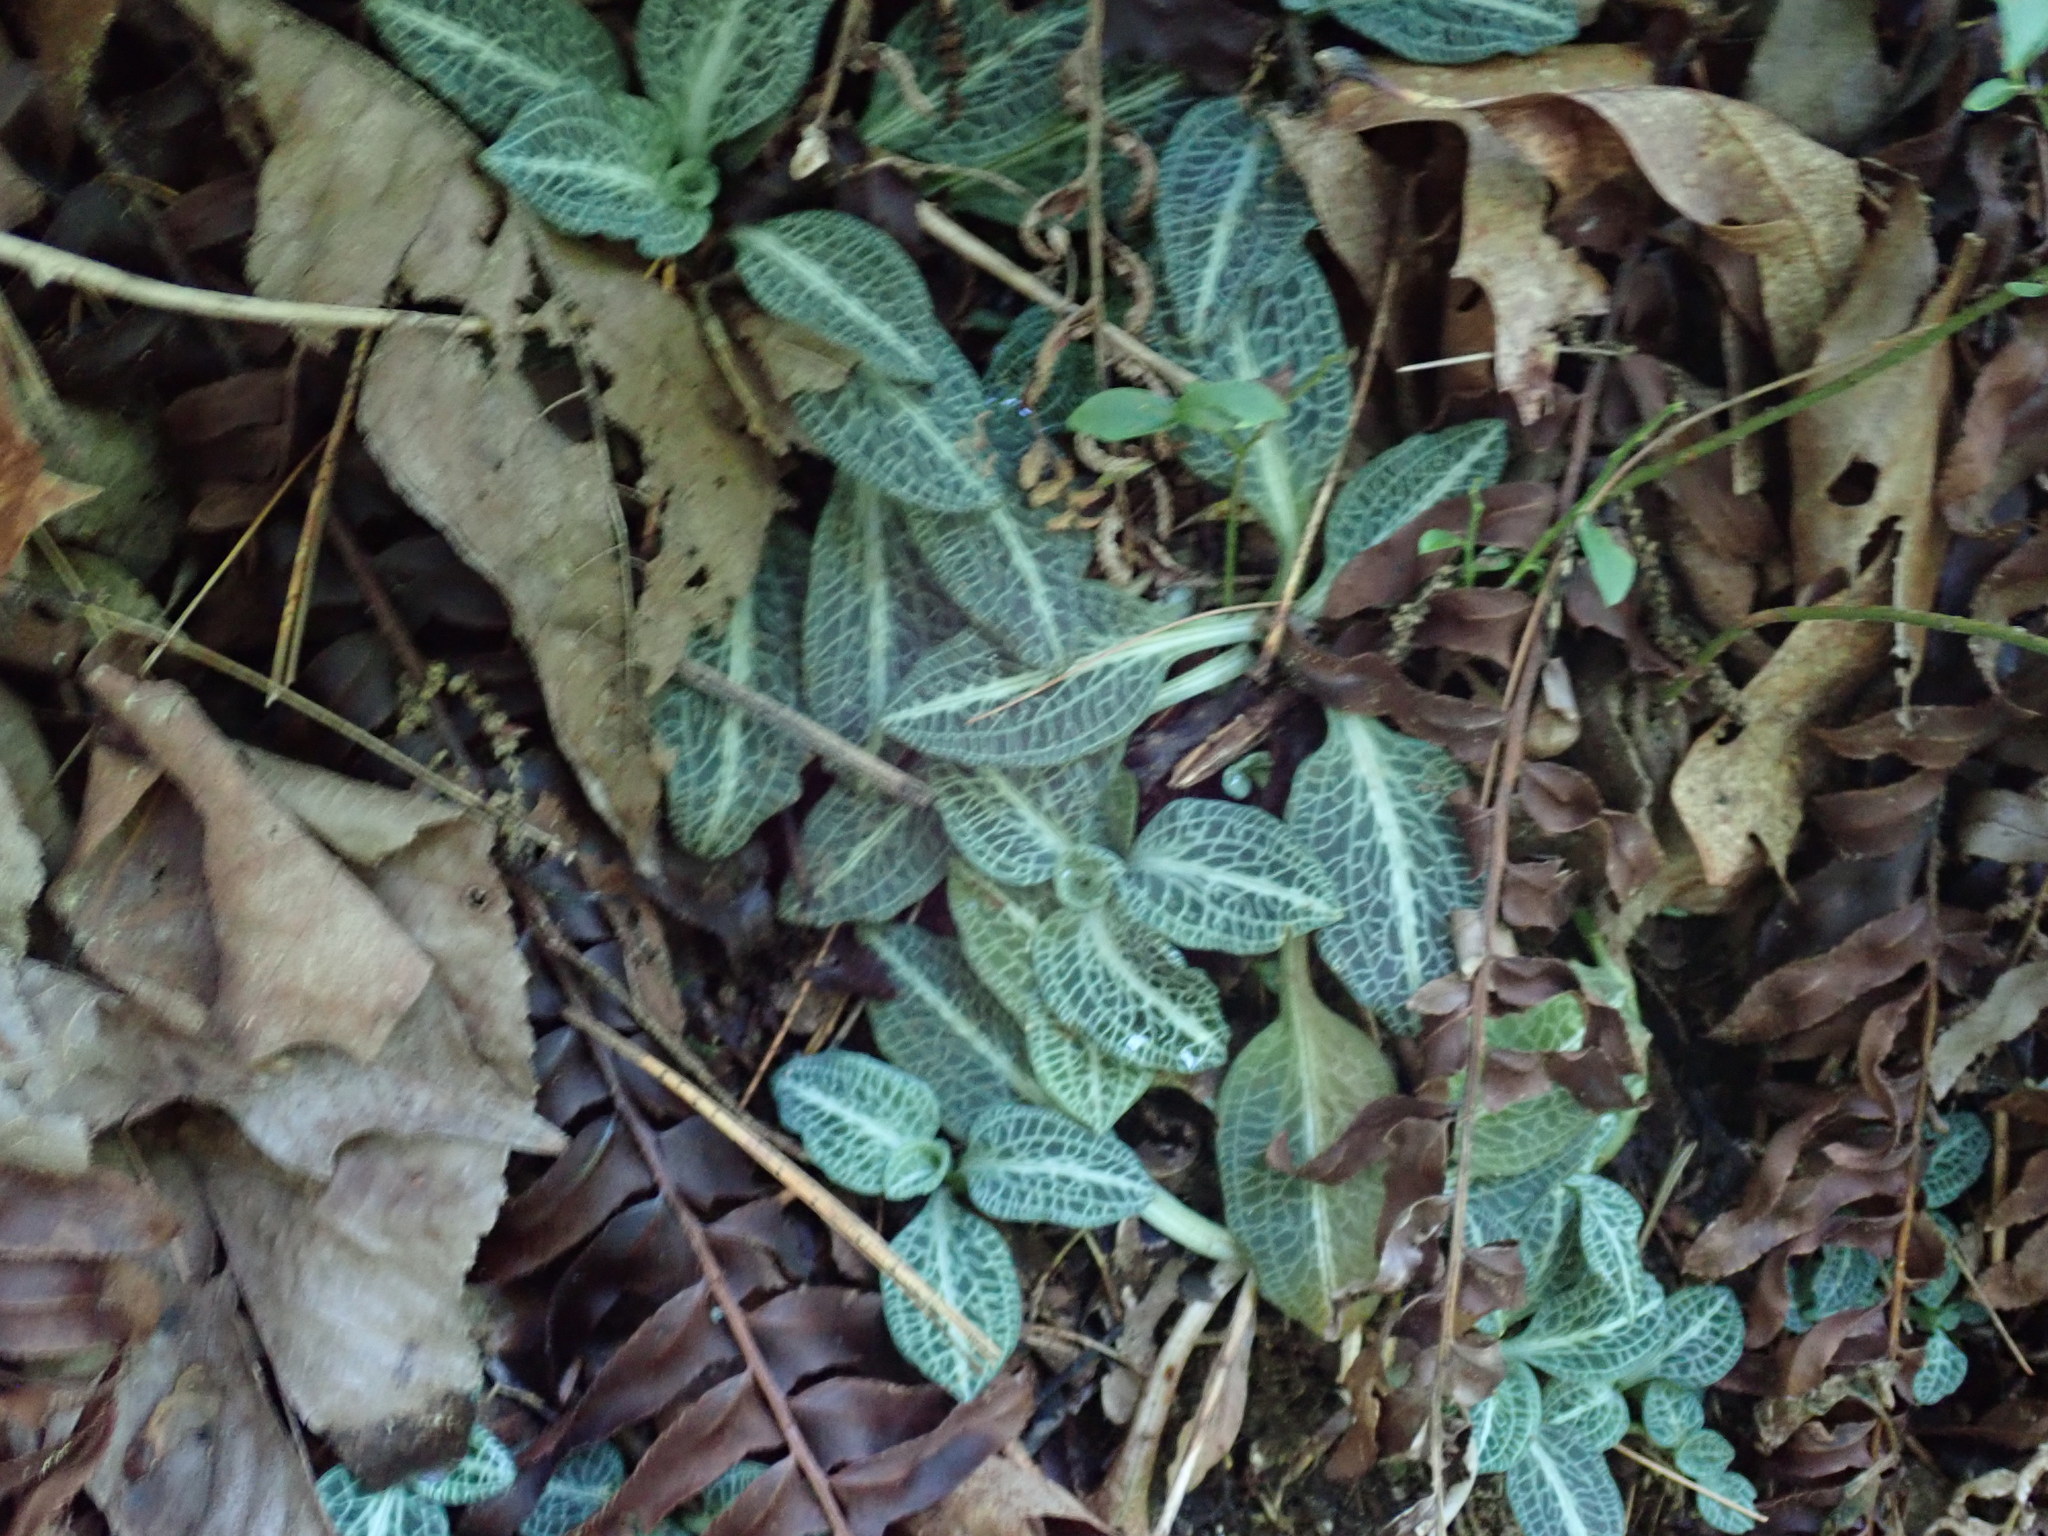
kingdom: Plantae
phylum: Tracheophyta
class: Liliopsida
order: Asparagales
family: Orchidaceae
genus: Goodyera
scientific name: Goodyera pubescens
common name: Downy rattlesnake-plantain
